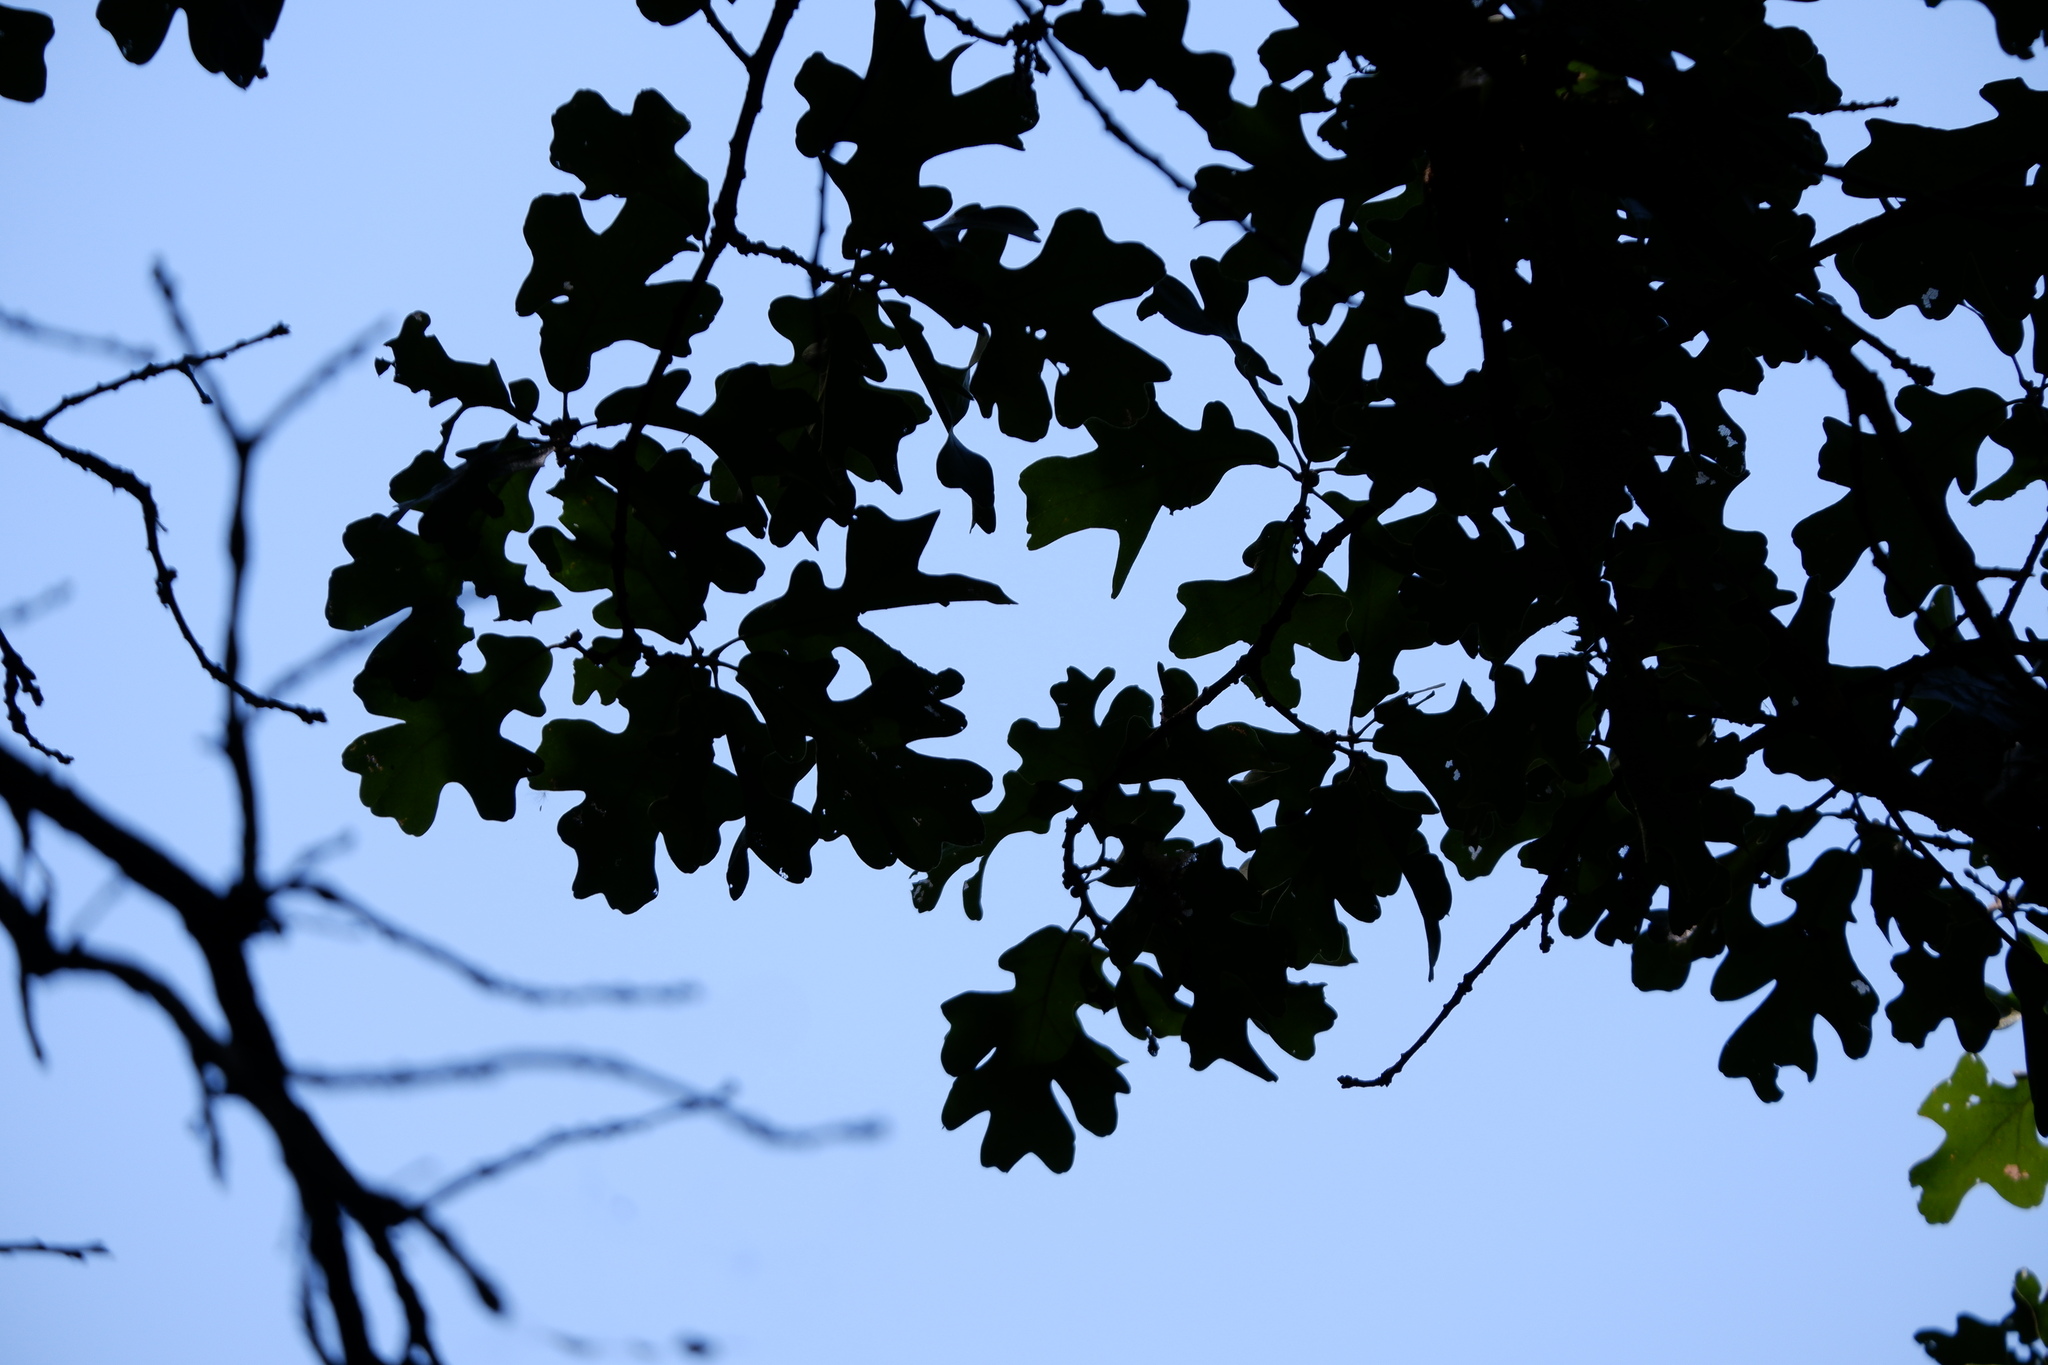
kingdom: Plantae
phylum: Tracheophyta
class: Magnoliopsida
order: Fagales
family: Fagaceae
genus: Quercus
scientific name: Quercus stellata
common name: Post oak
